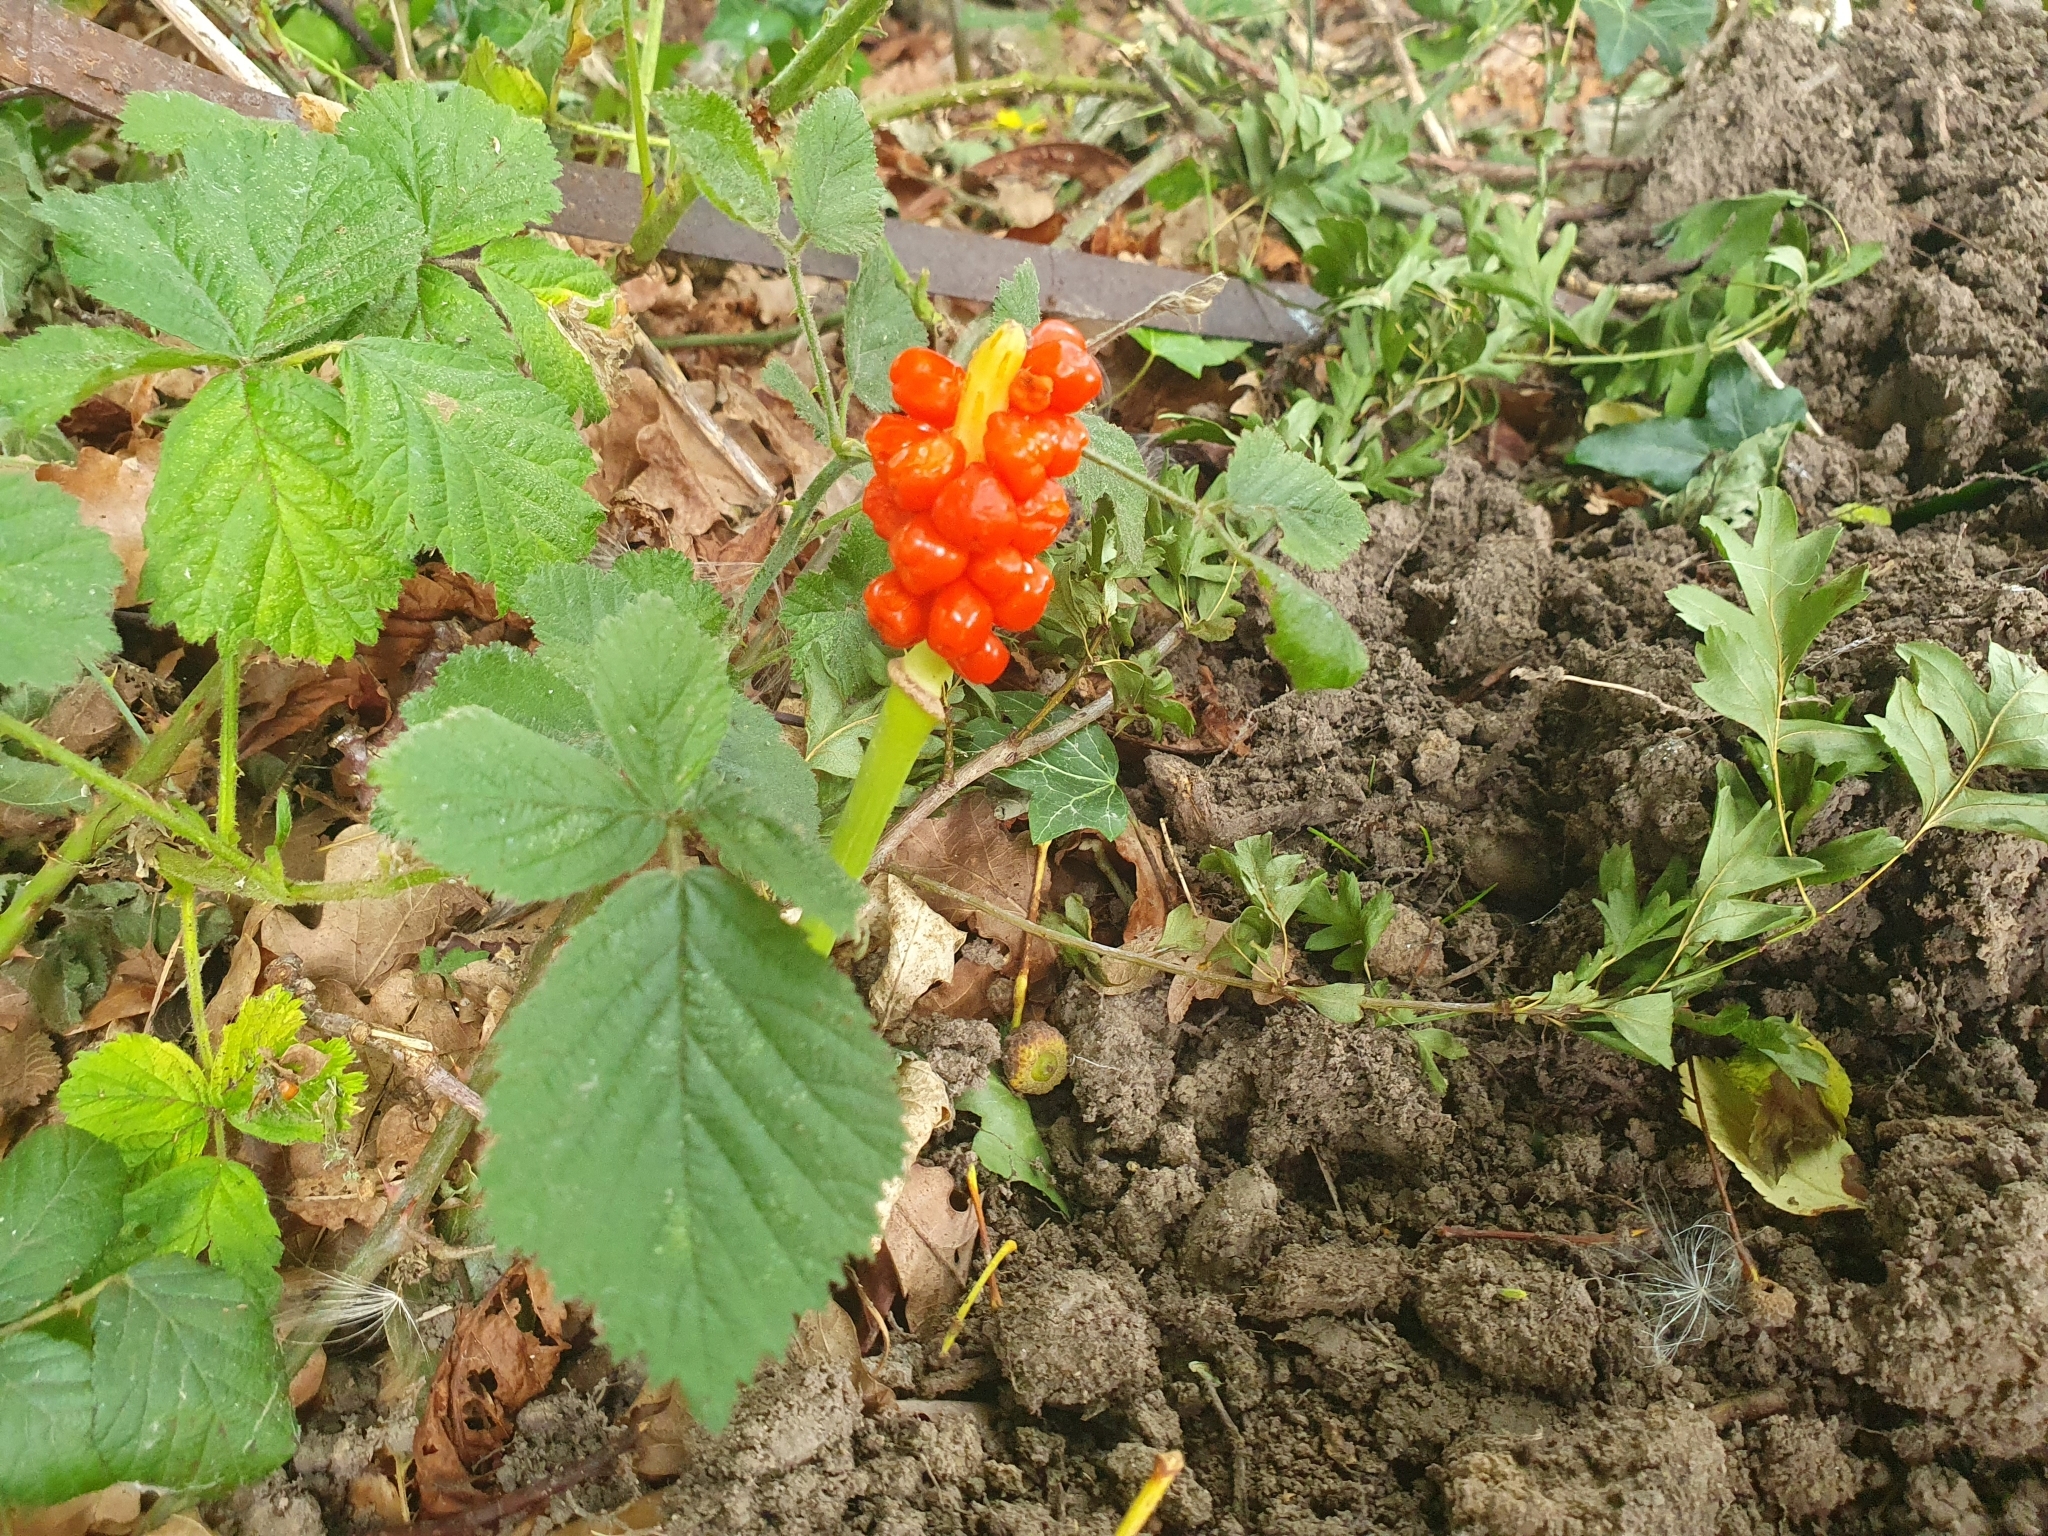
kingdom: Plantae
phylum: Tracheophyta
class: Liliopsida
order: Alismatales
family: Araceae
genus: Arum
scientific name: Arum maculatum
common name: Lords-and-ladies
